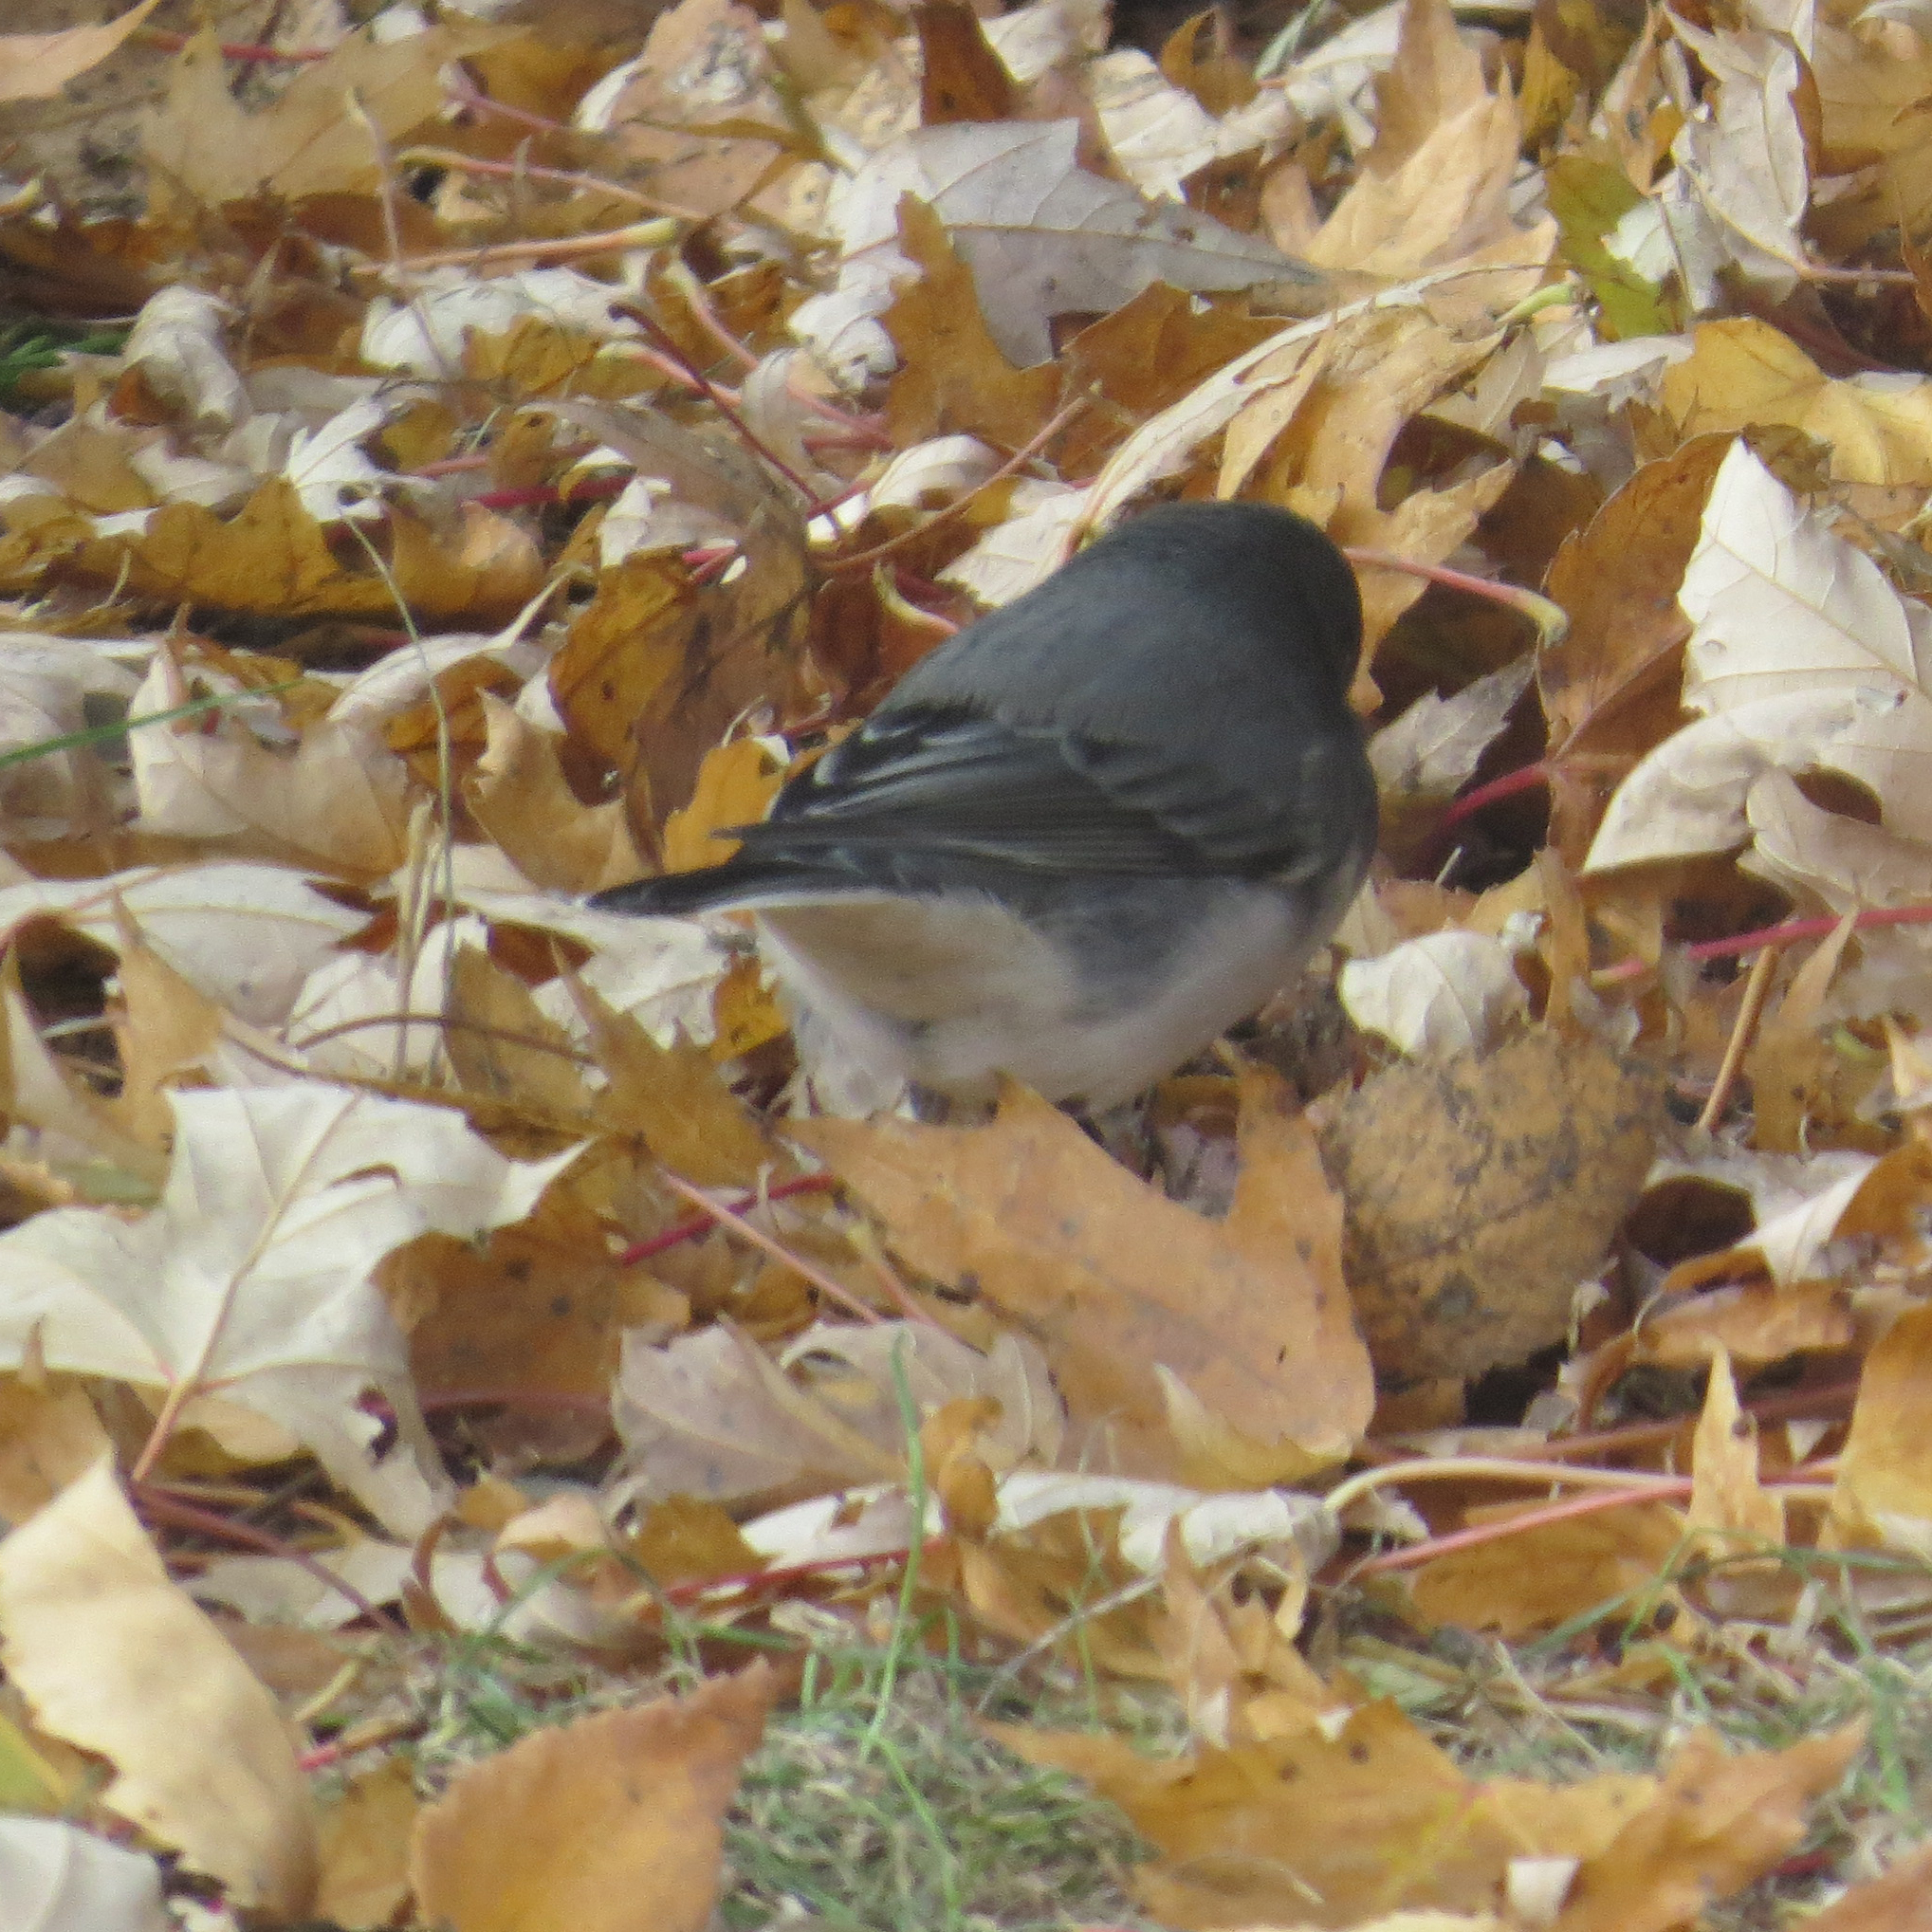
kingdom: Animalia
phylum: Chordata
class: Aves
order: Passeriformes
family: Passerellidae
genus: Junco
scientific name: Junco hyemalis
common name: Dark-eyed junco
